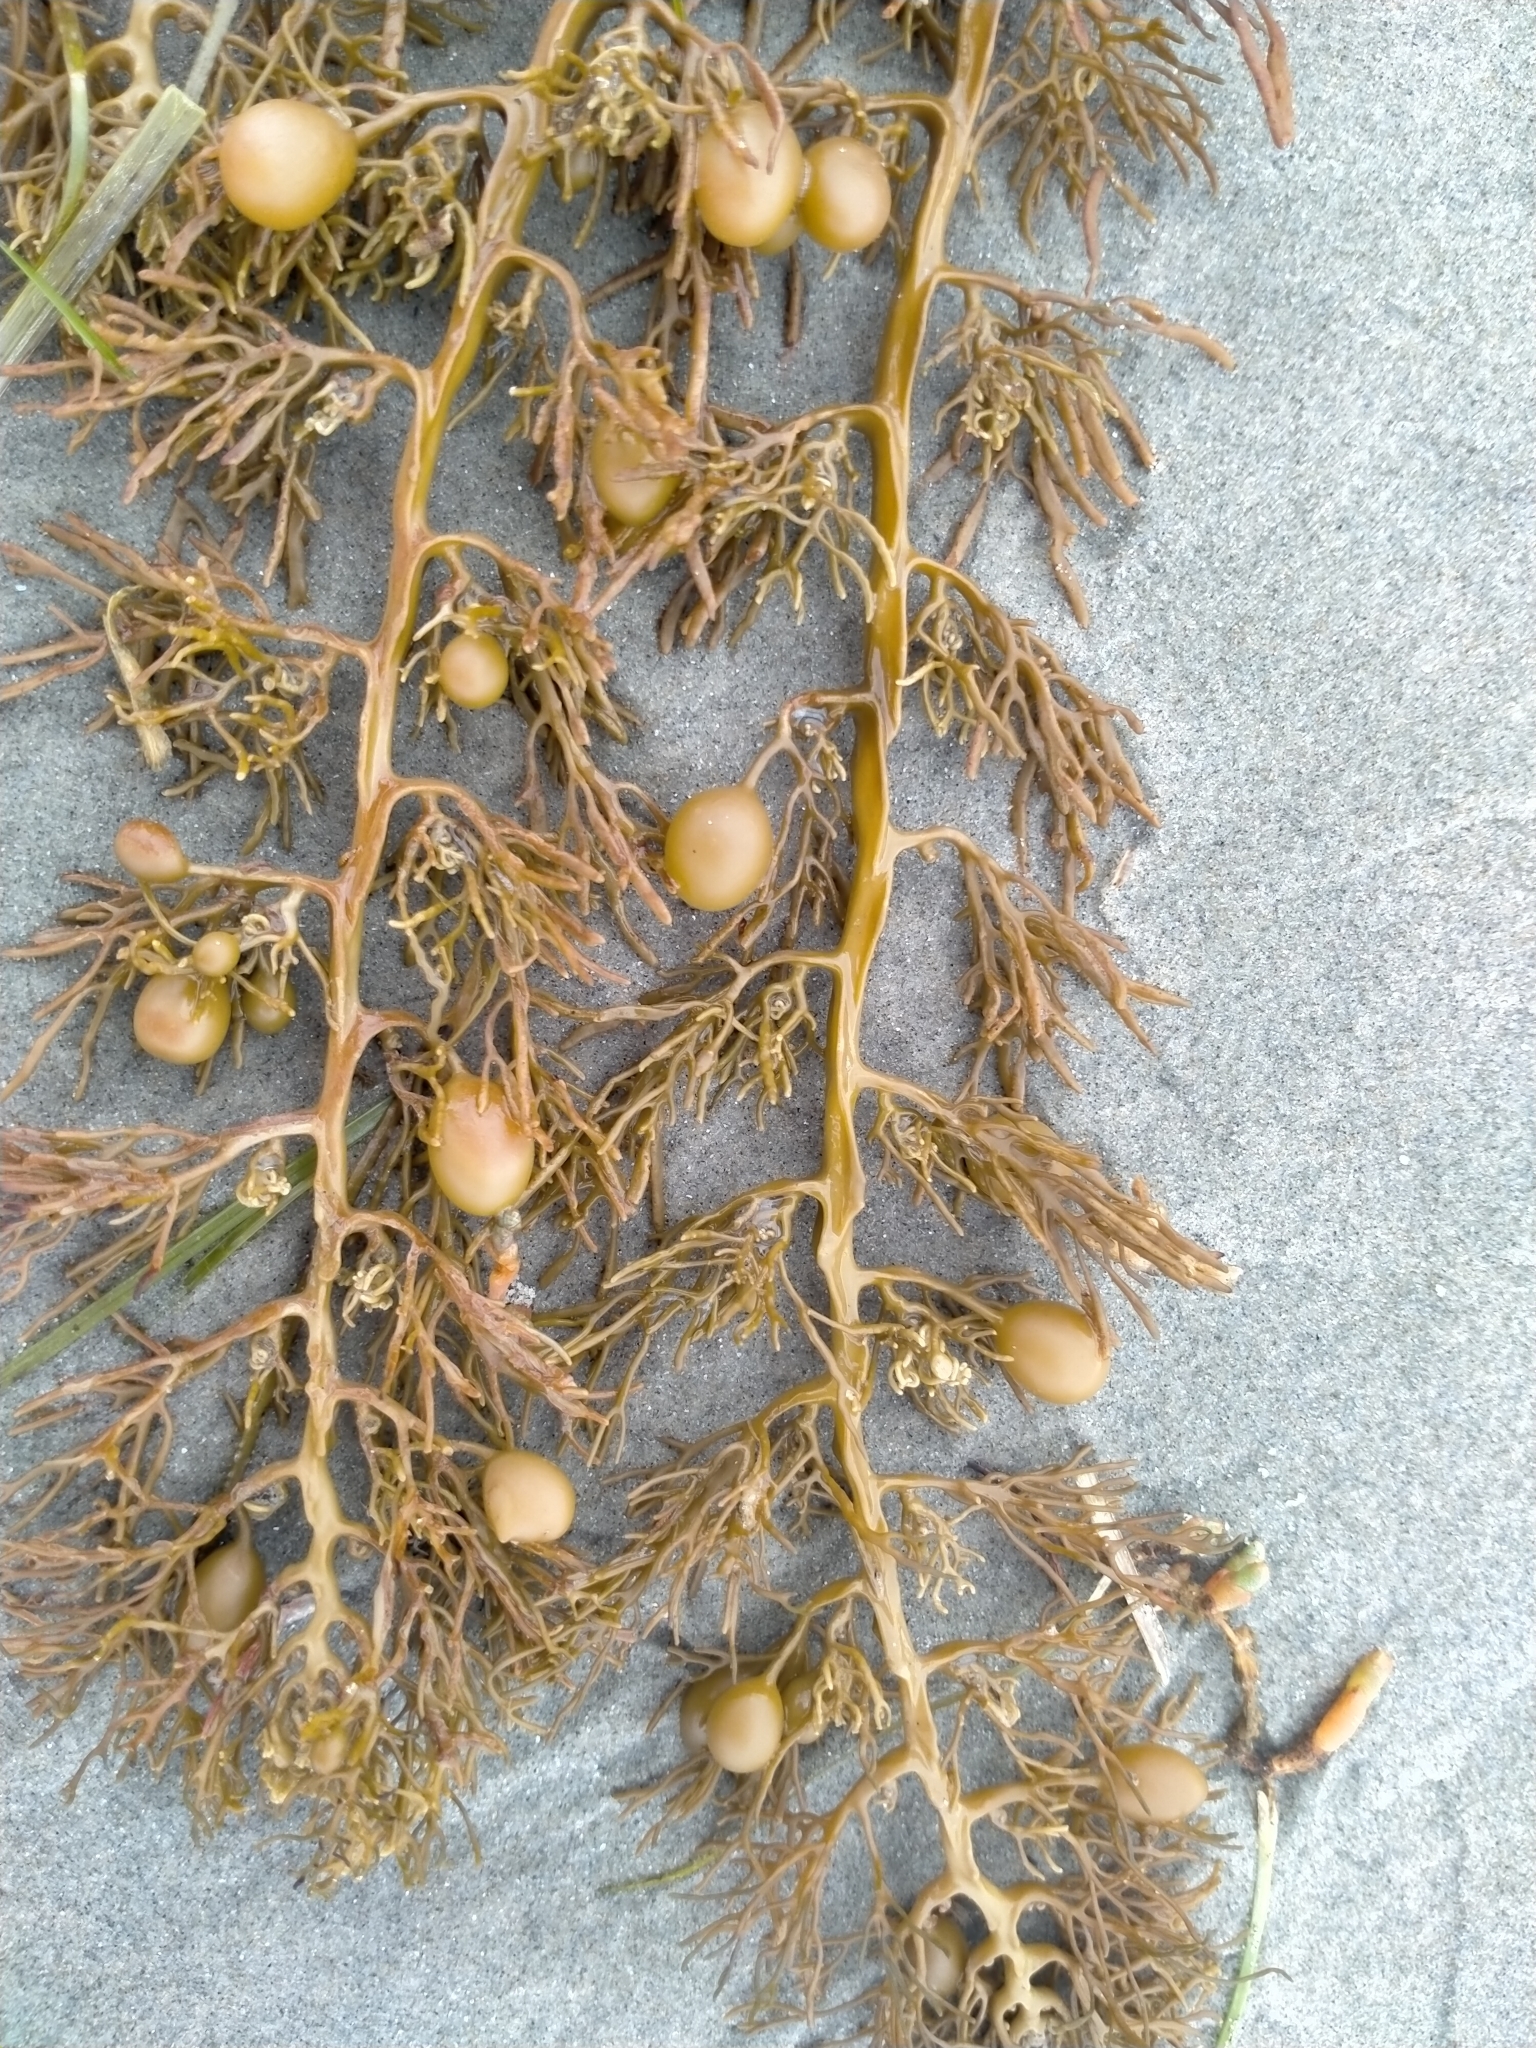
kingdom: Chromista
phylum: Ochrophyta
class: Phaeophyceae
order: Fucales
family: Sargassaceae
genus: Cystophora
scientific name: Cystophora retroflexa
